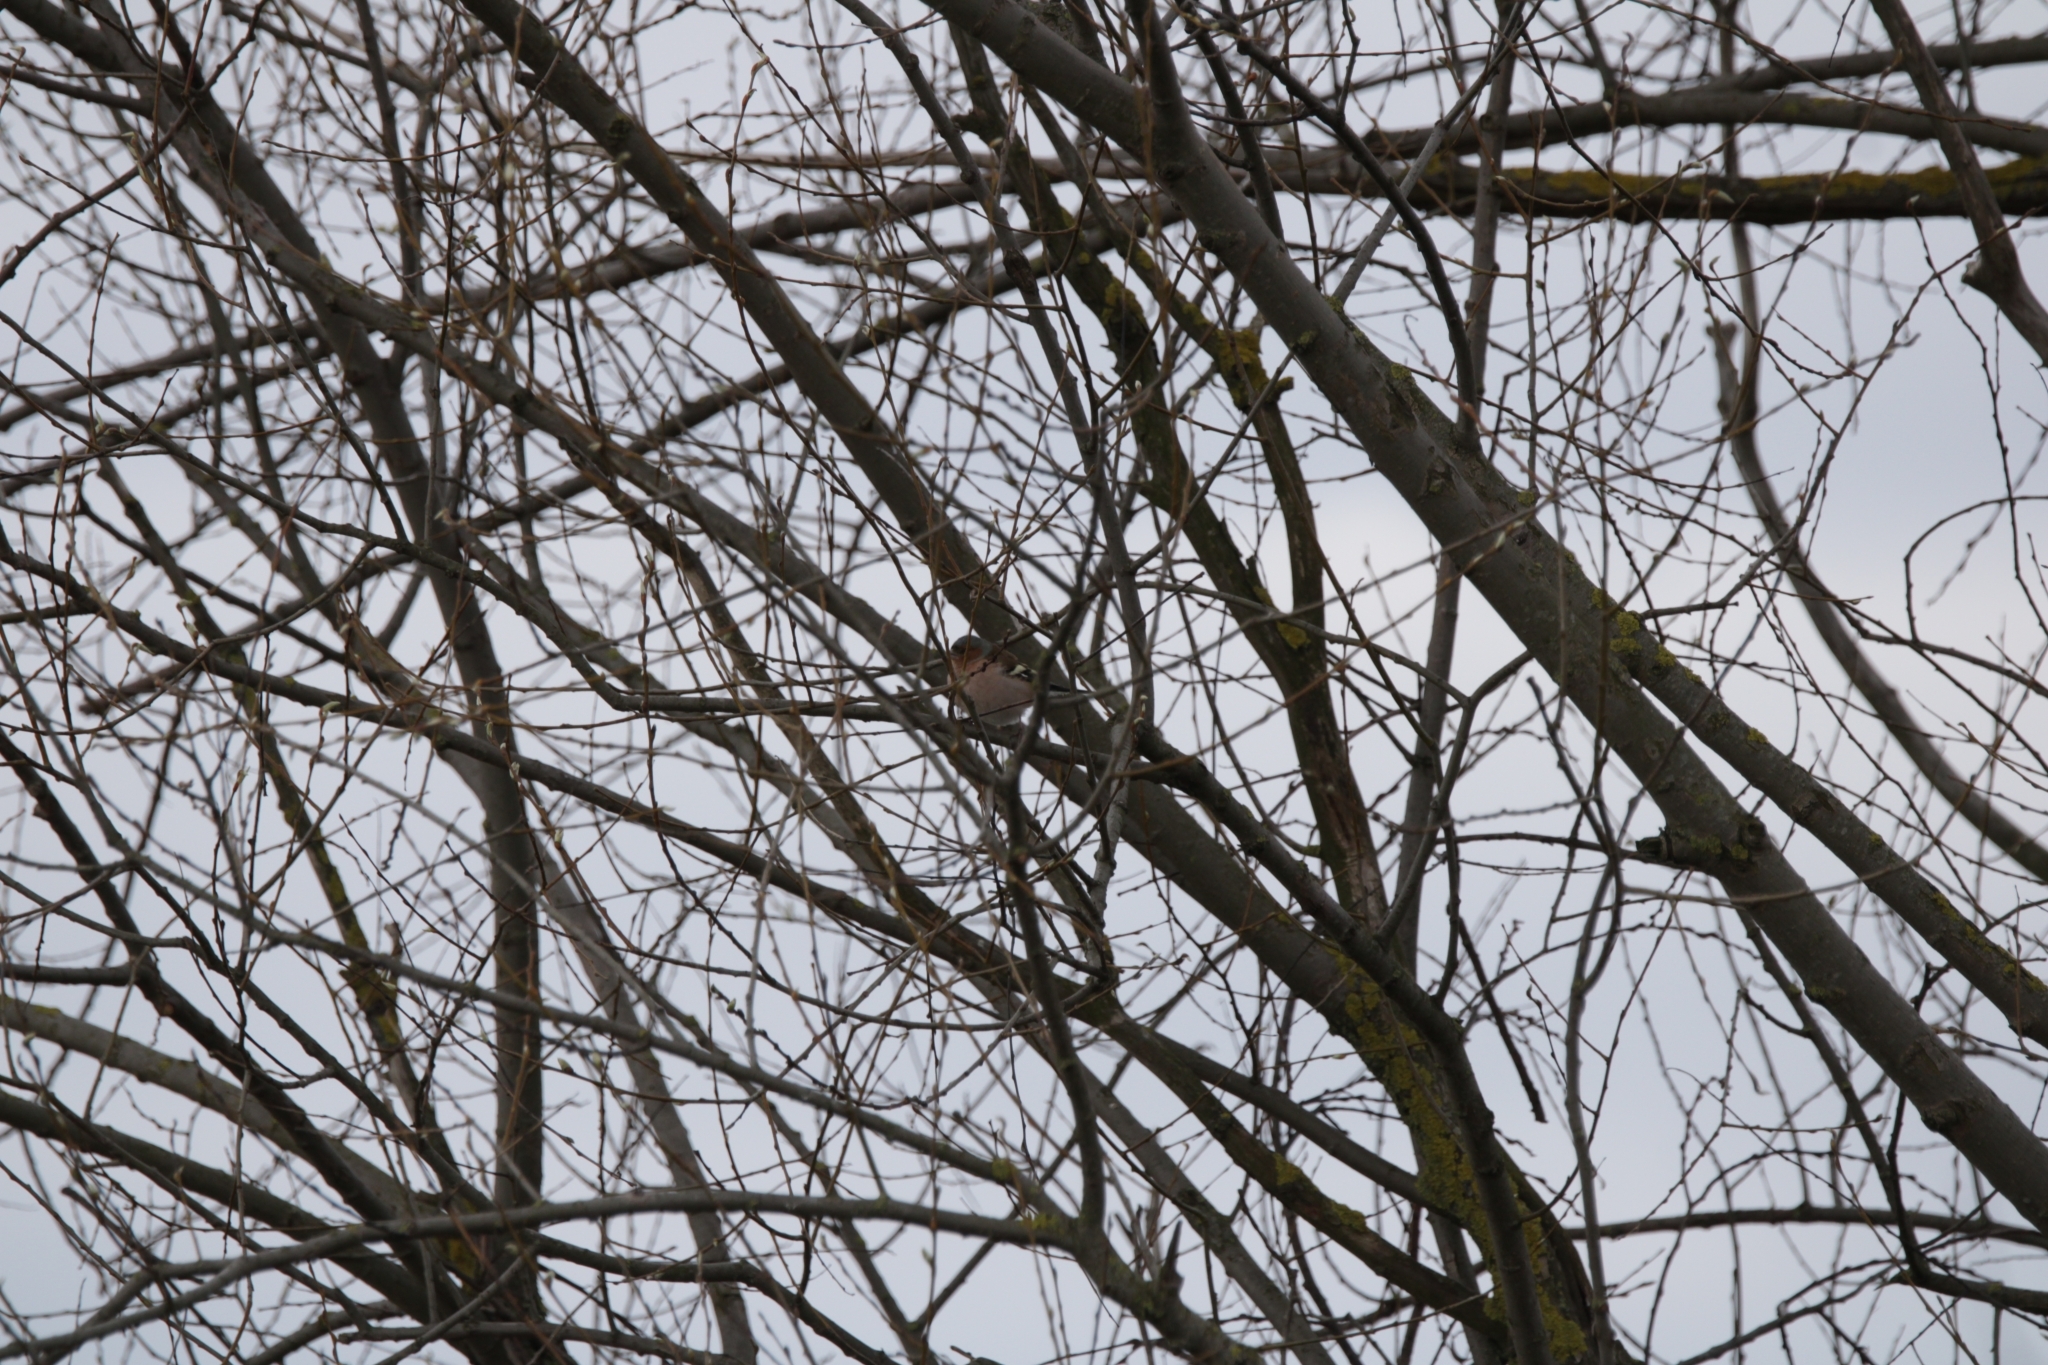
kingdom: Animalia
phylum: Chordata
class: Aves
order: Passeriformes
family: Fringillidae
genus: Fringilla
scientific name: Fringilla coelebs
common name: Common chaffinch
